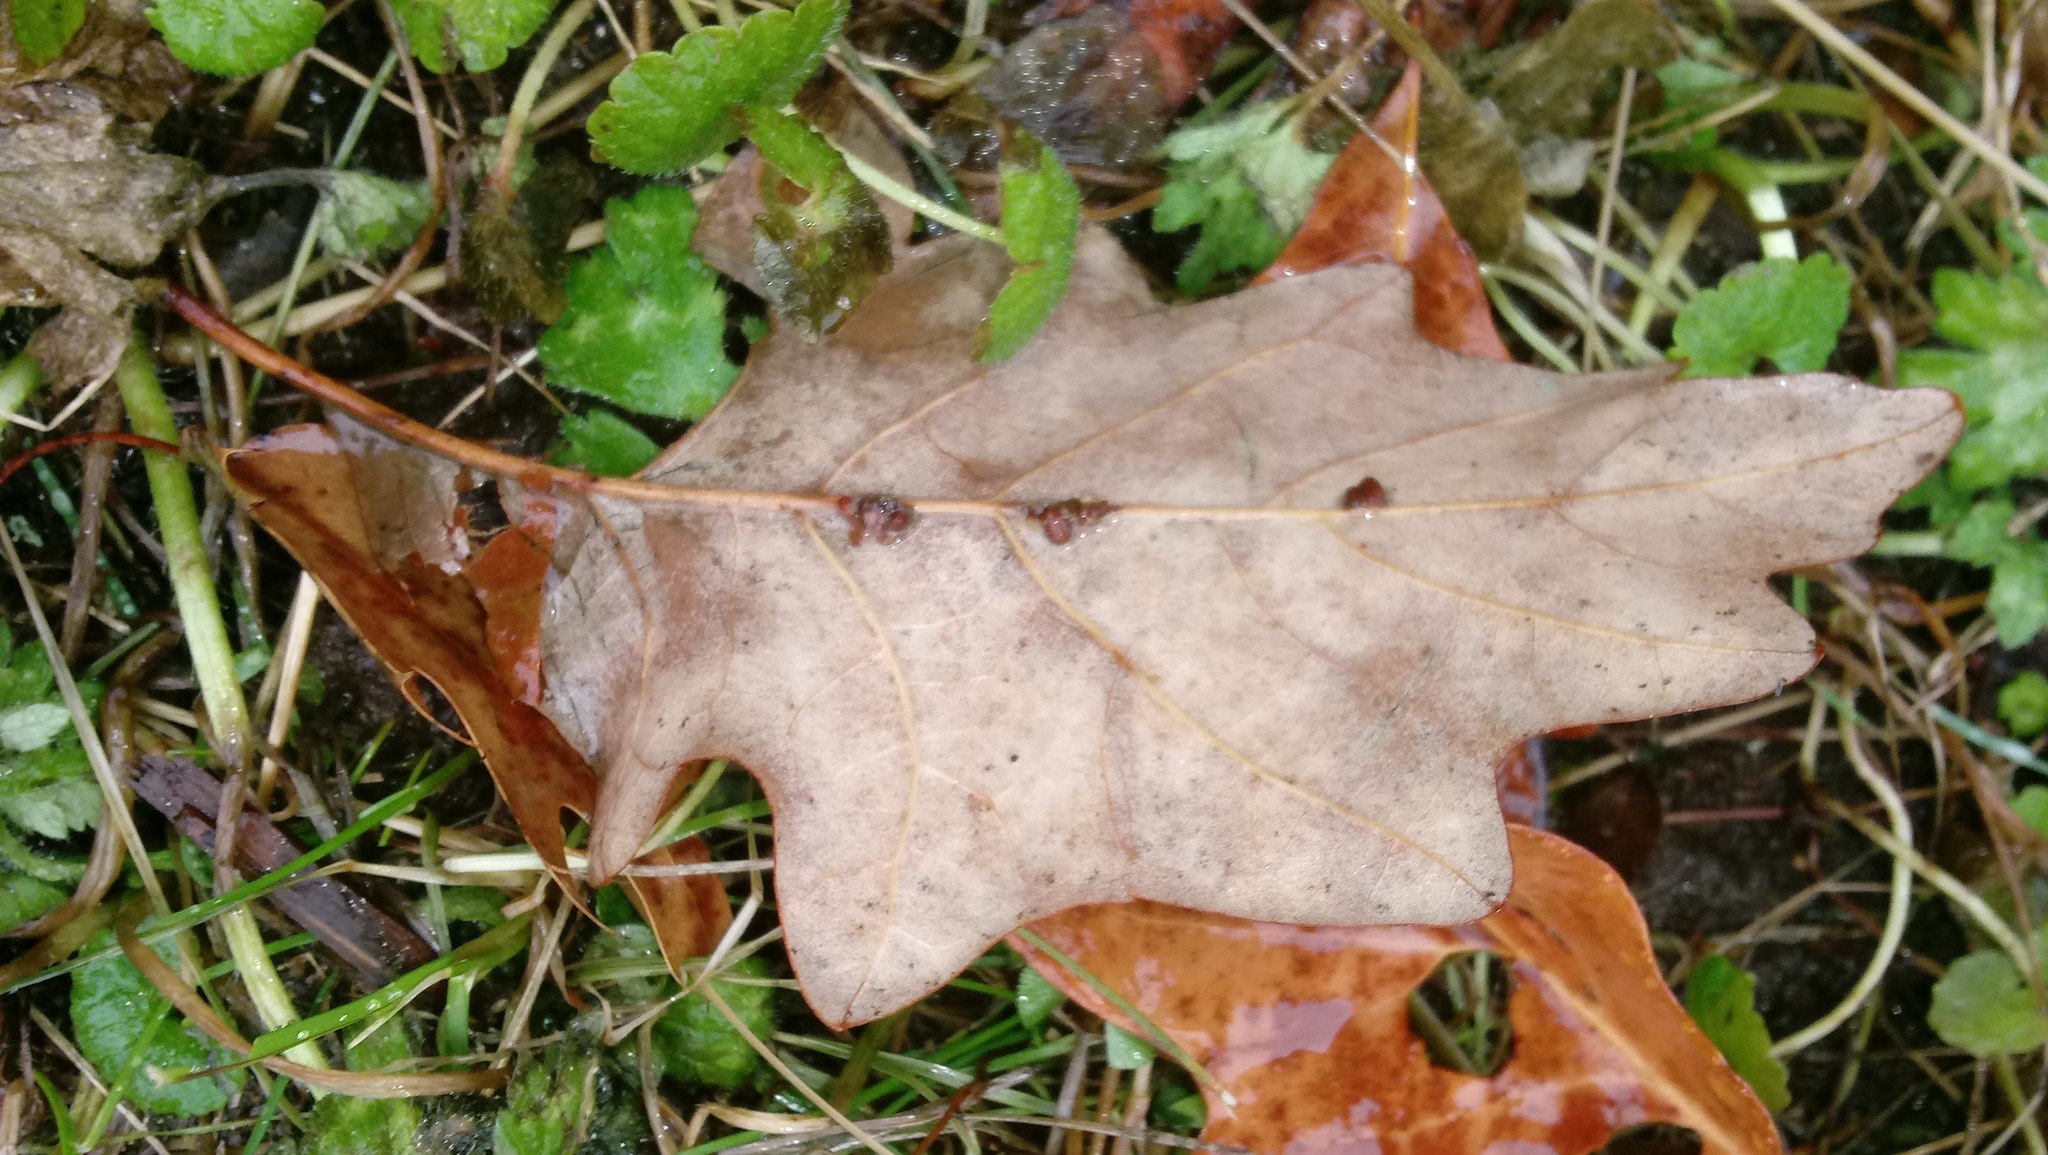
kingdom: Animalia
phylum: Arthropoda
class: Insecta
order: Hymenoptera
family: Cynipidae
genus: Andricus
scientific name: Andricus Druon ignotum
